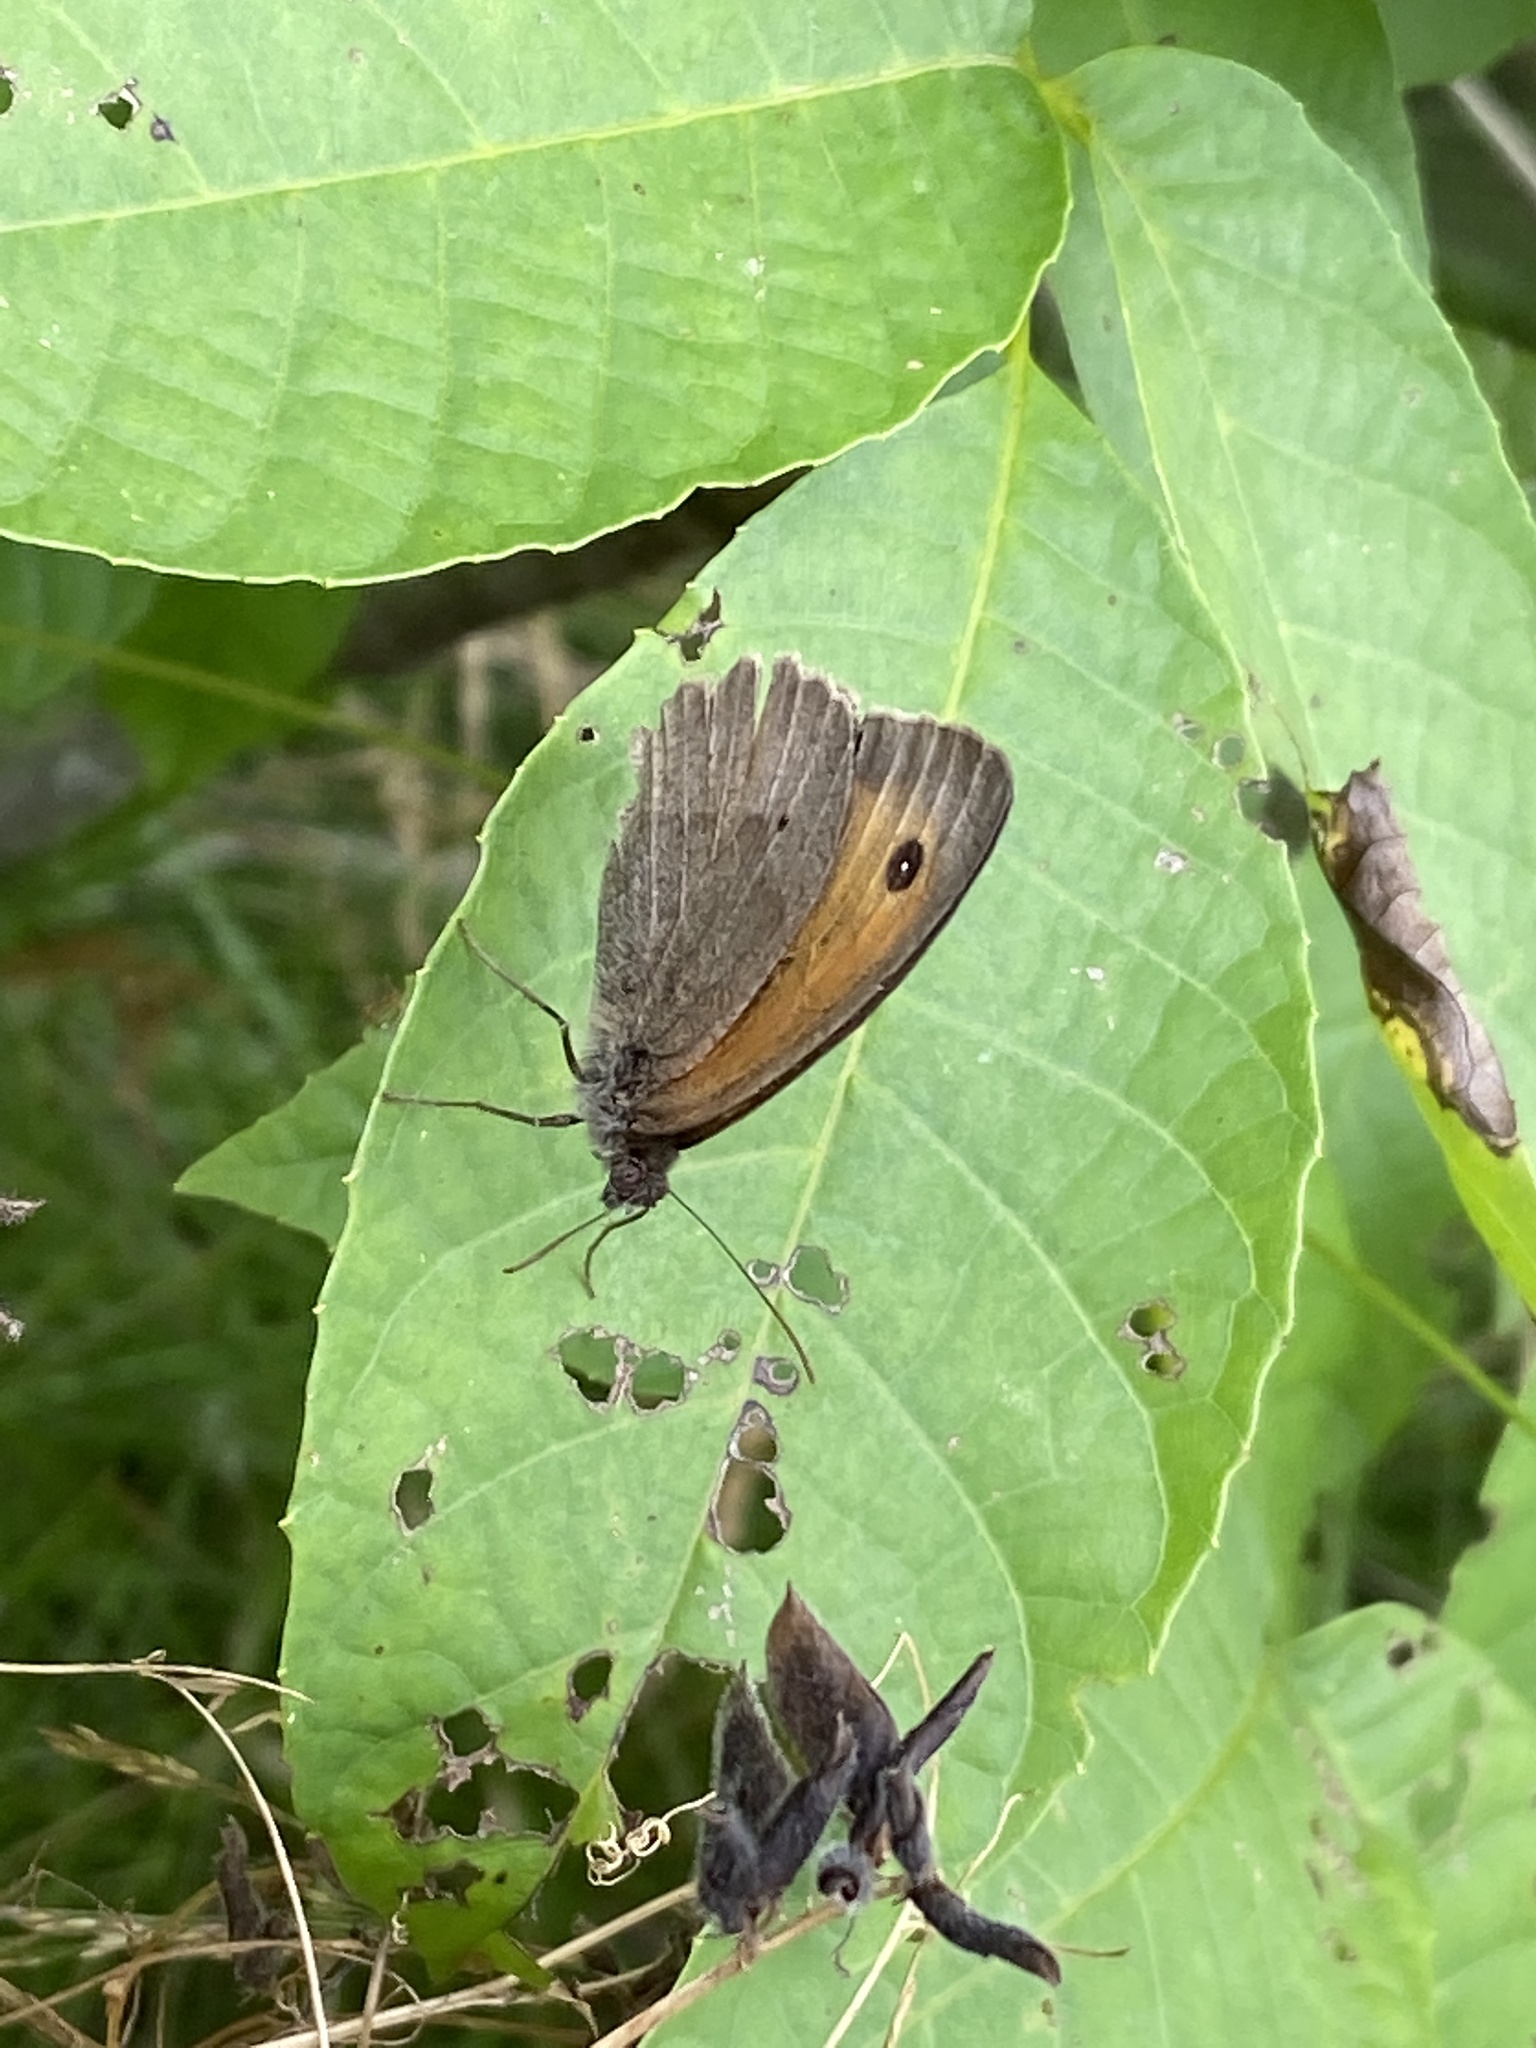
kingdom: Animalia
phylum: Arthropoda
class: Insecta
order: Lepidoptera
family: Nymphalidae
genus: Maniola
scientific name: Maniola jurtina
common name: Meadow brown
